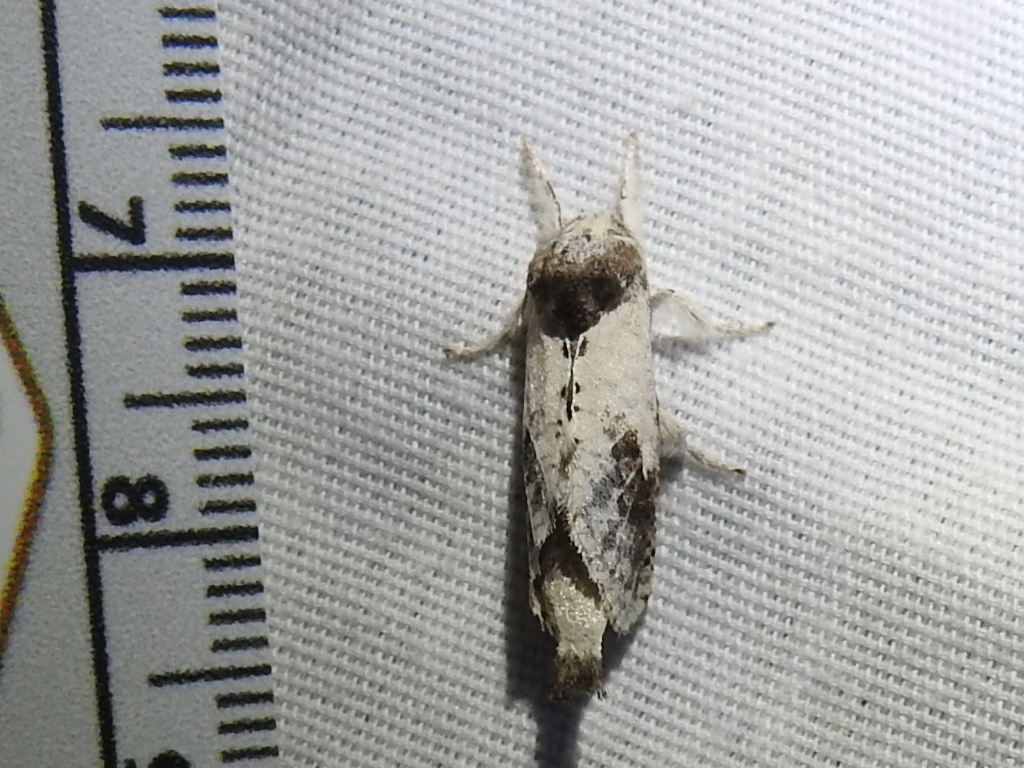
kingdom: Animalia
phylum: Arthropoda
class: Insecta
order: Lepidoptera
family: Cossidae
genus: Givira
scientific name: Givira theodori
